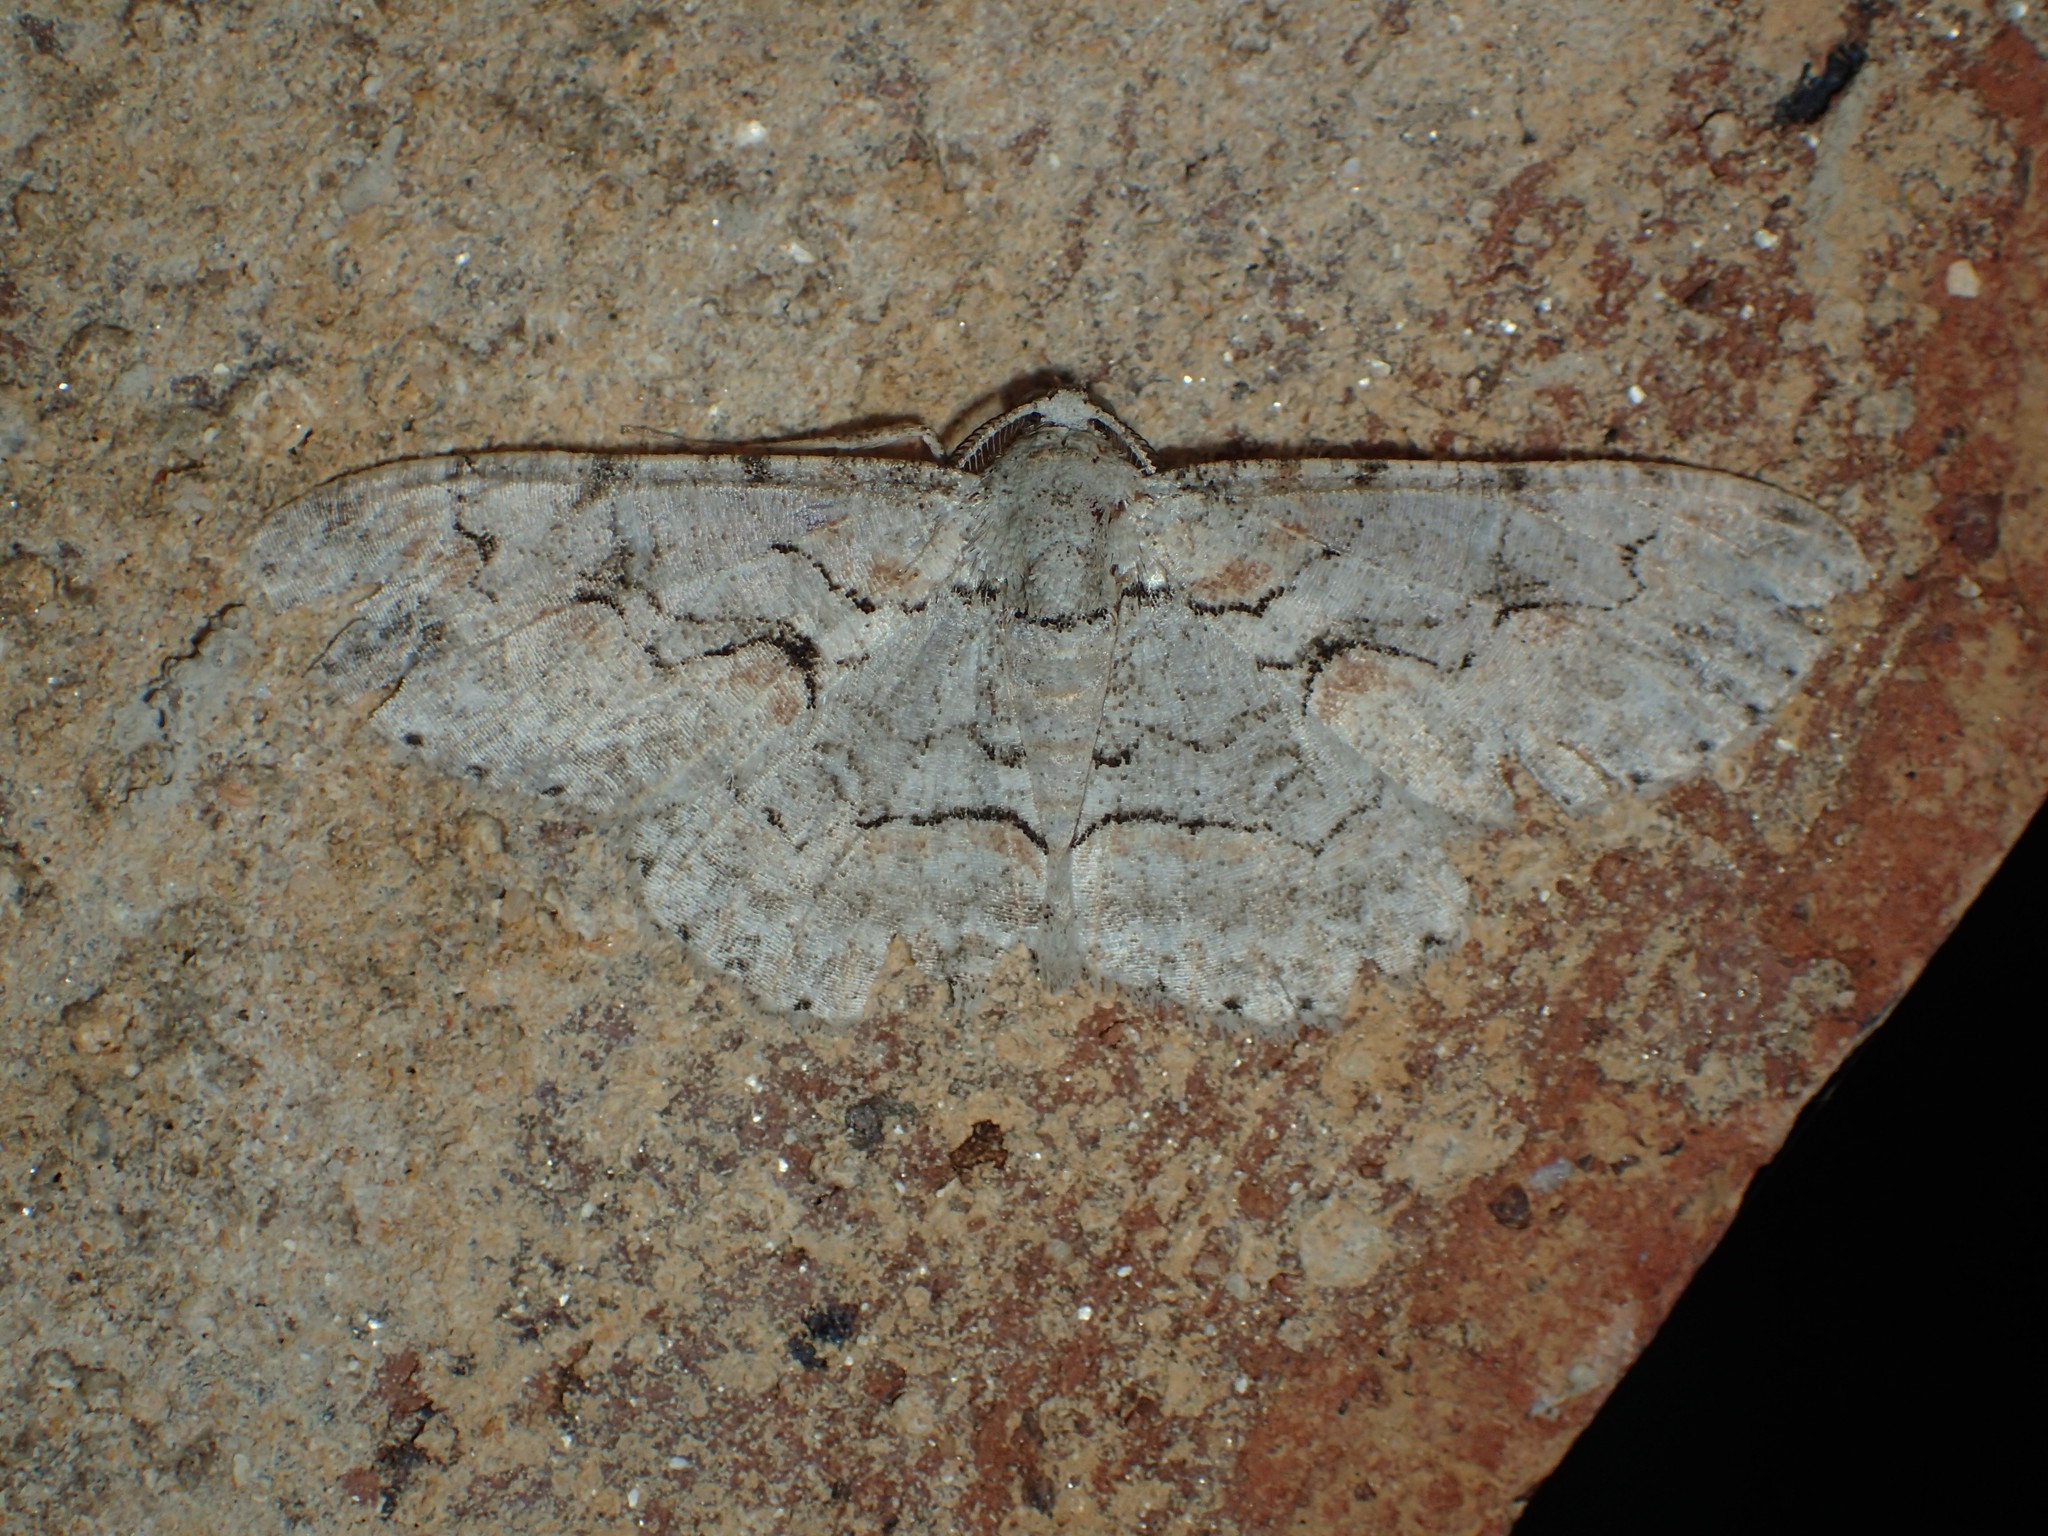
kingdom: Animalia
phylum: Arthropoda
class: Insecta
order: Lepidoptera
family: Geometridae
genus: Iridopsis
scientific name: Iridopsis defectaria
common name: Brown-shaded gray
